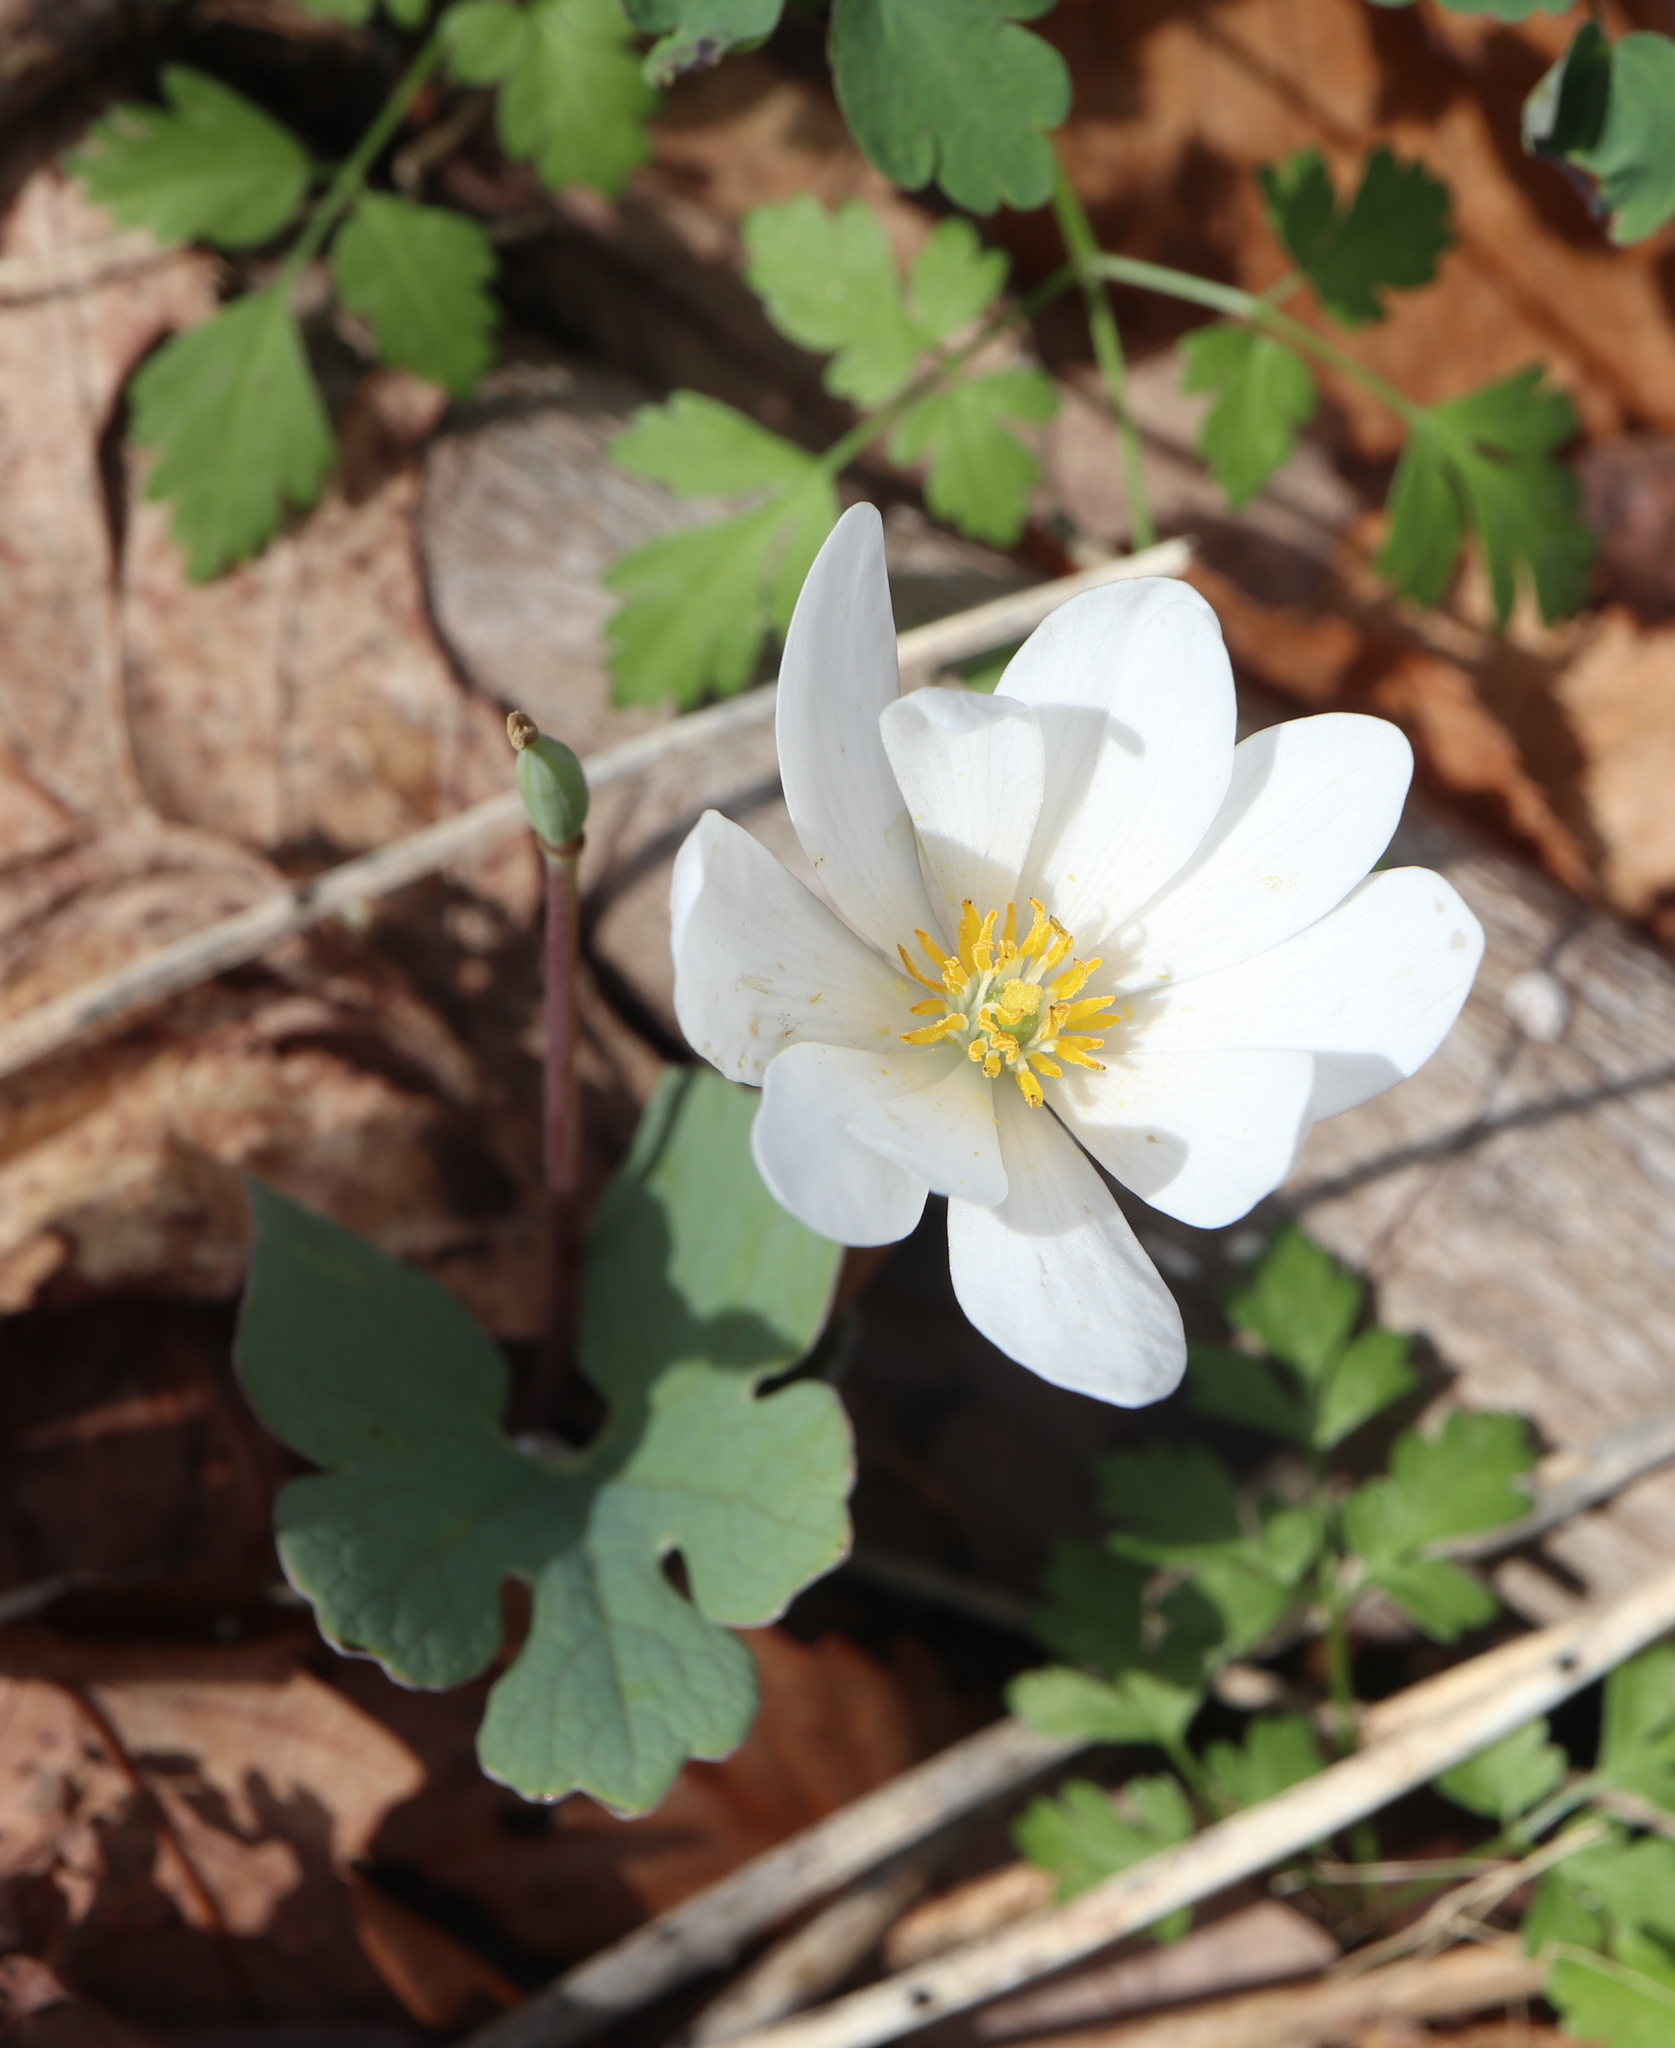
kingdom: Plantae
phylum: Tracheophyta
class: Magnoliopsida
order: Ranunculales
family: Papaveraceae
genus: Sanguinaria
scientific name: Sanguinaria canadensis
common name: Bloodroot
